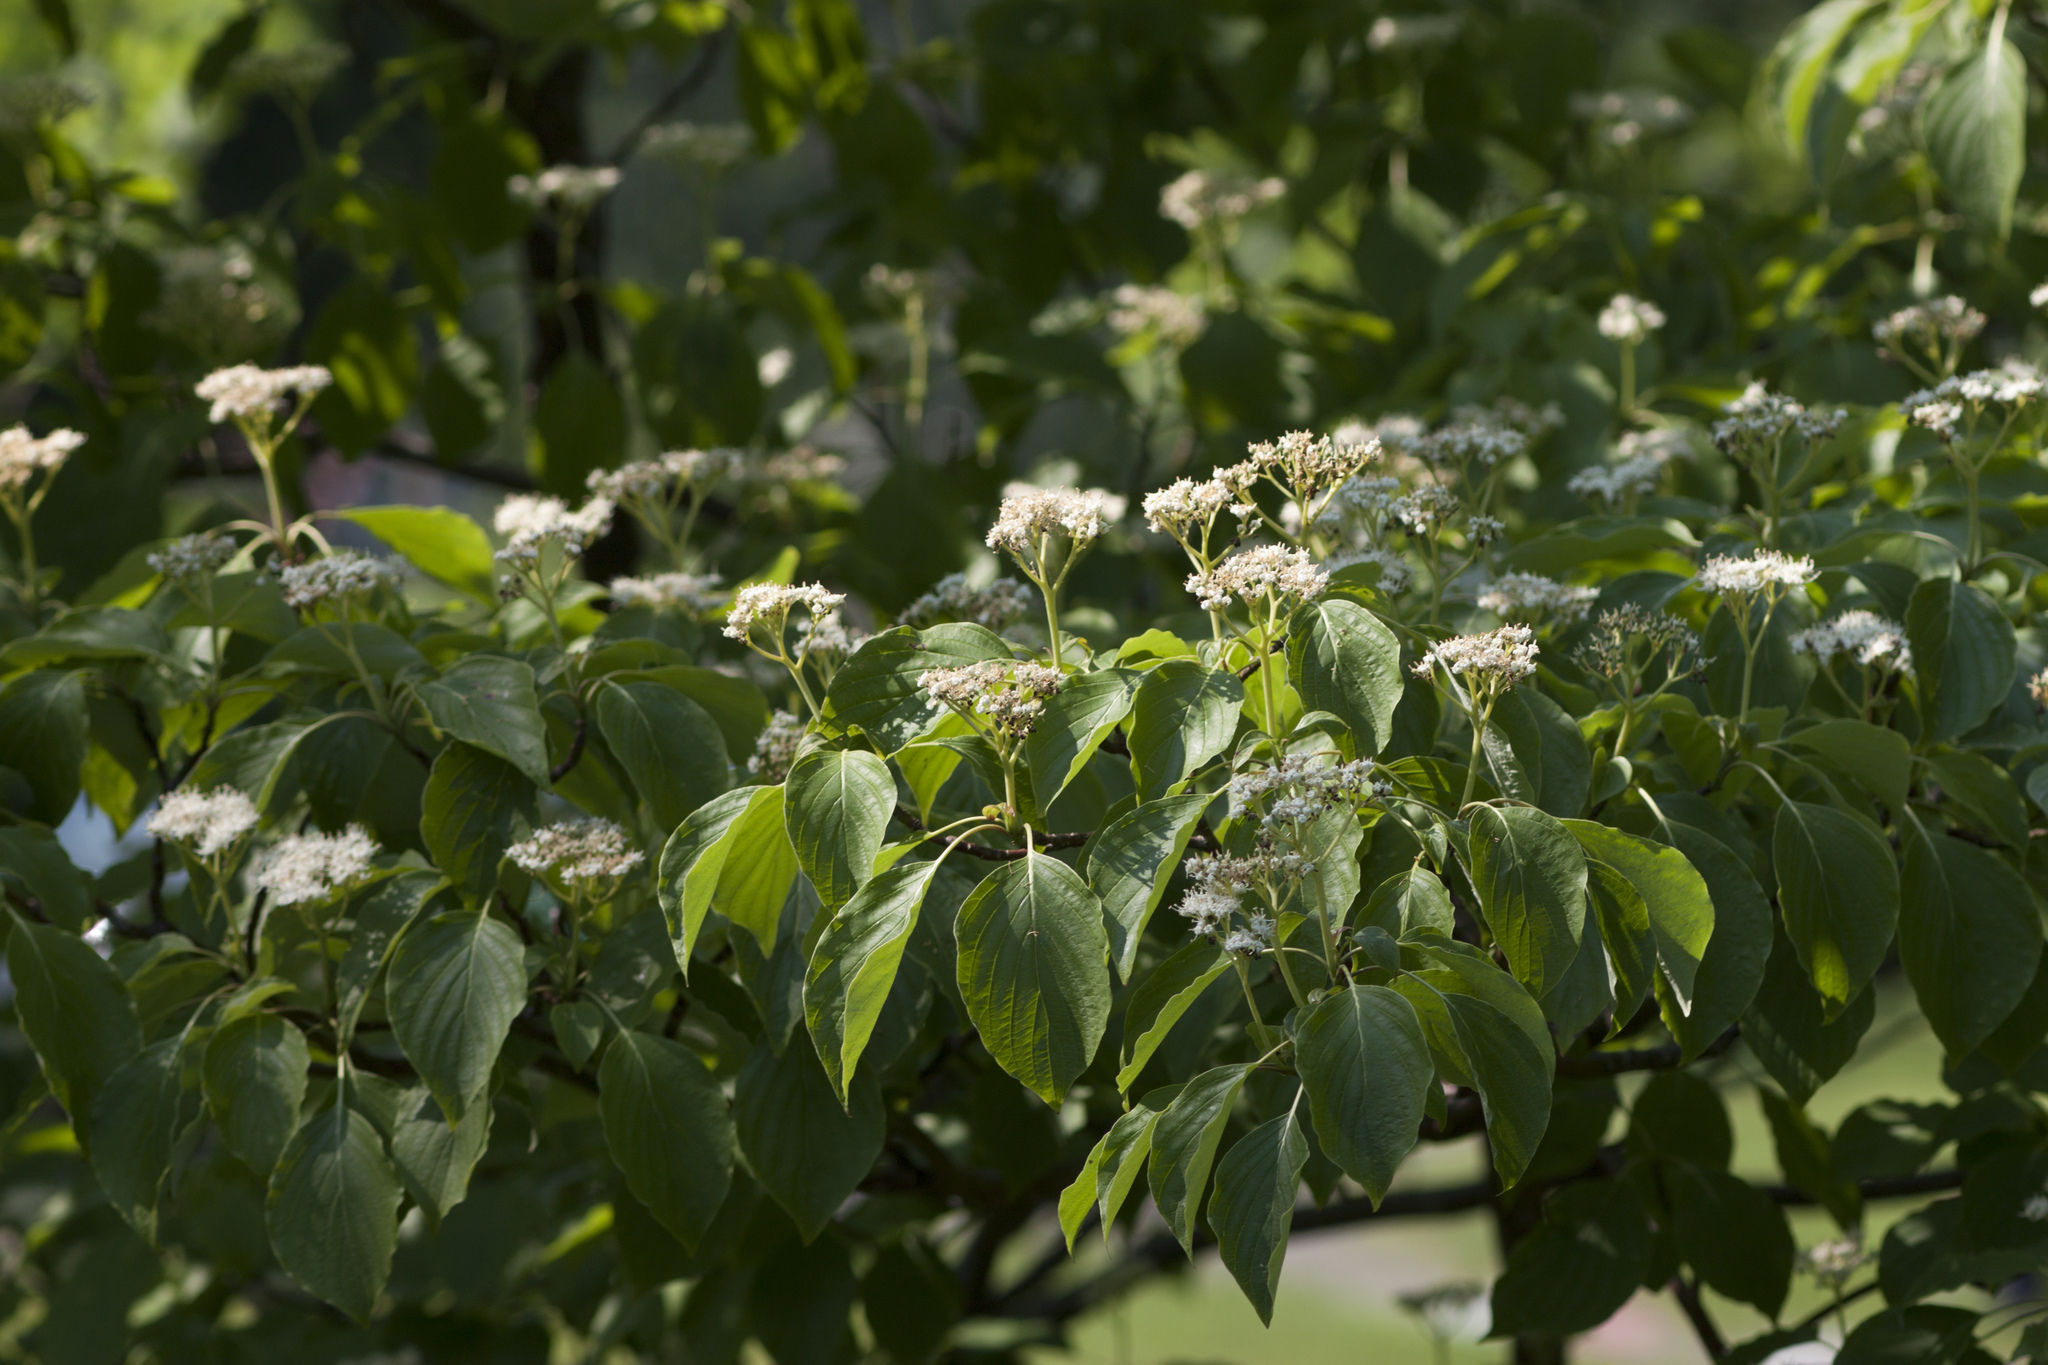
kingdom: Plantae
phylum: Tracheophyta
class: Magnoliopsida
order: Cornales
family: Cornaceae
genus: Cornus
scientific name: Cornus alternifolia
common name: Pagoda dogwood
